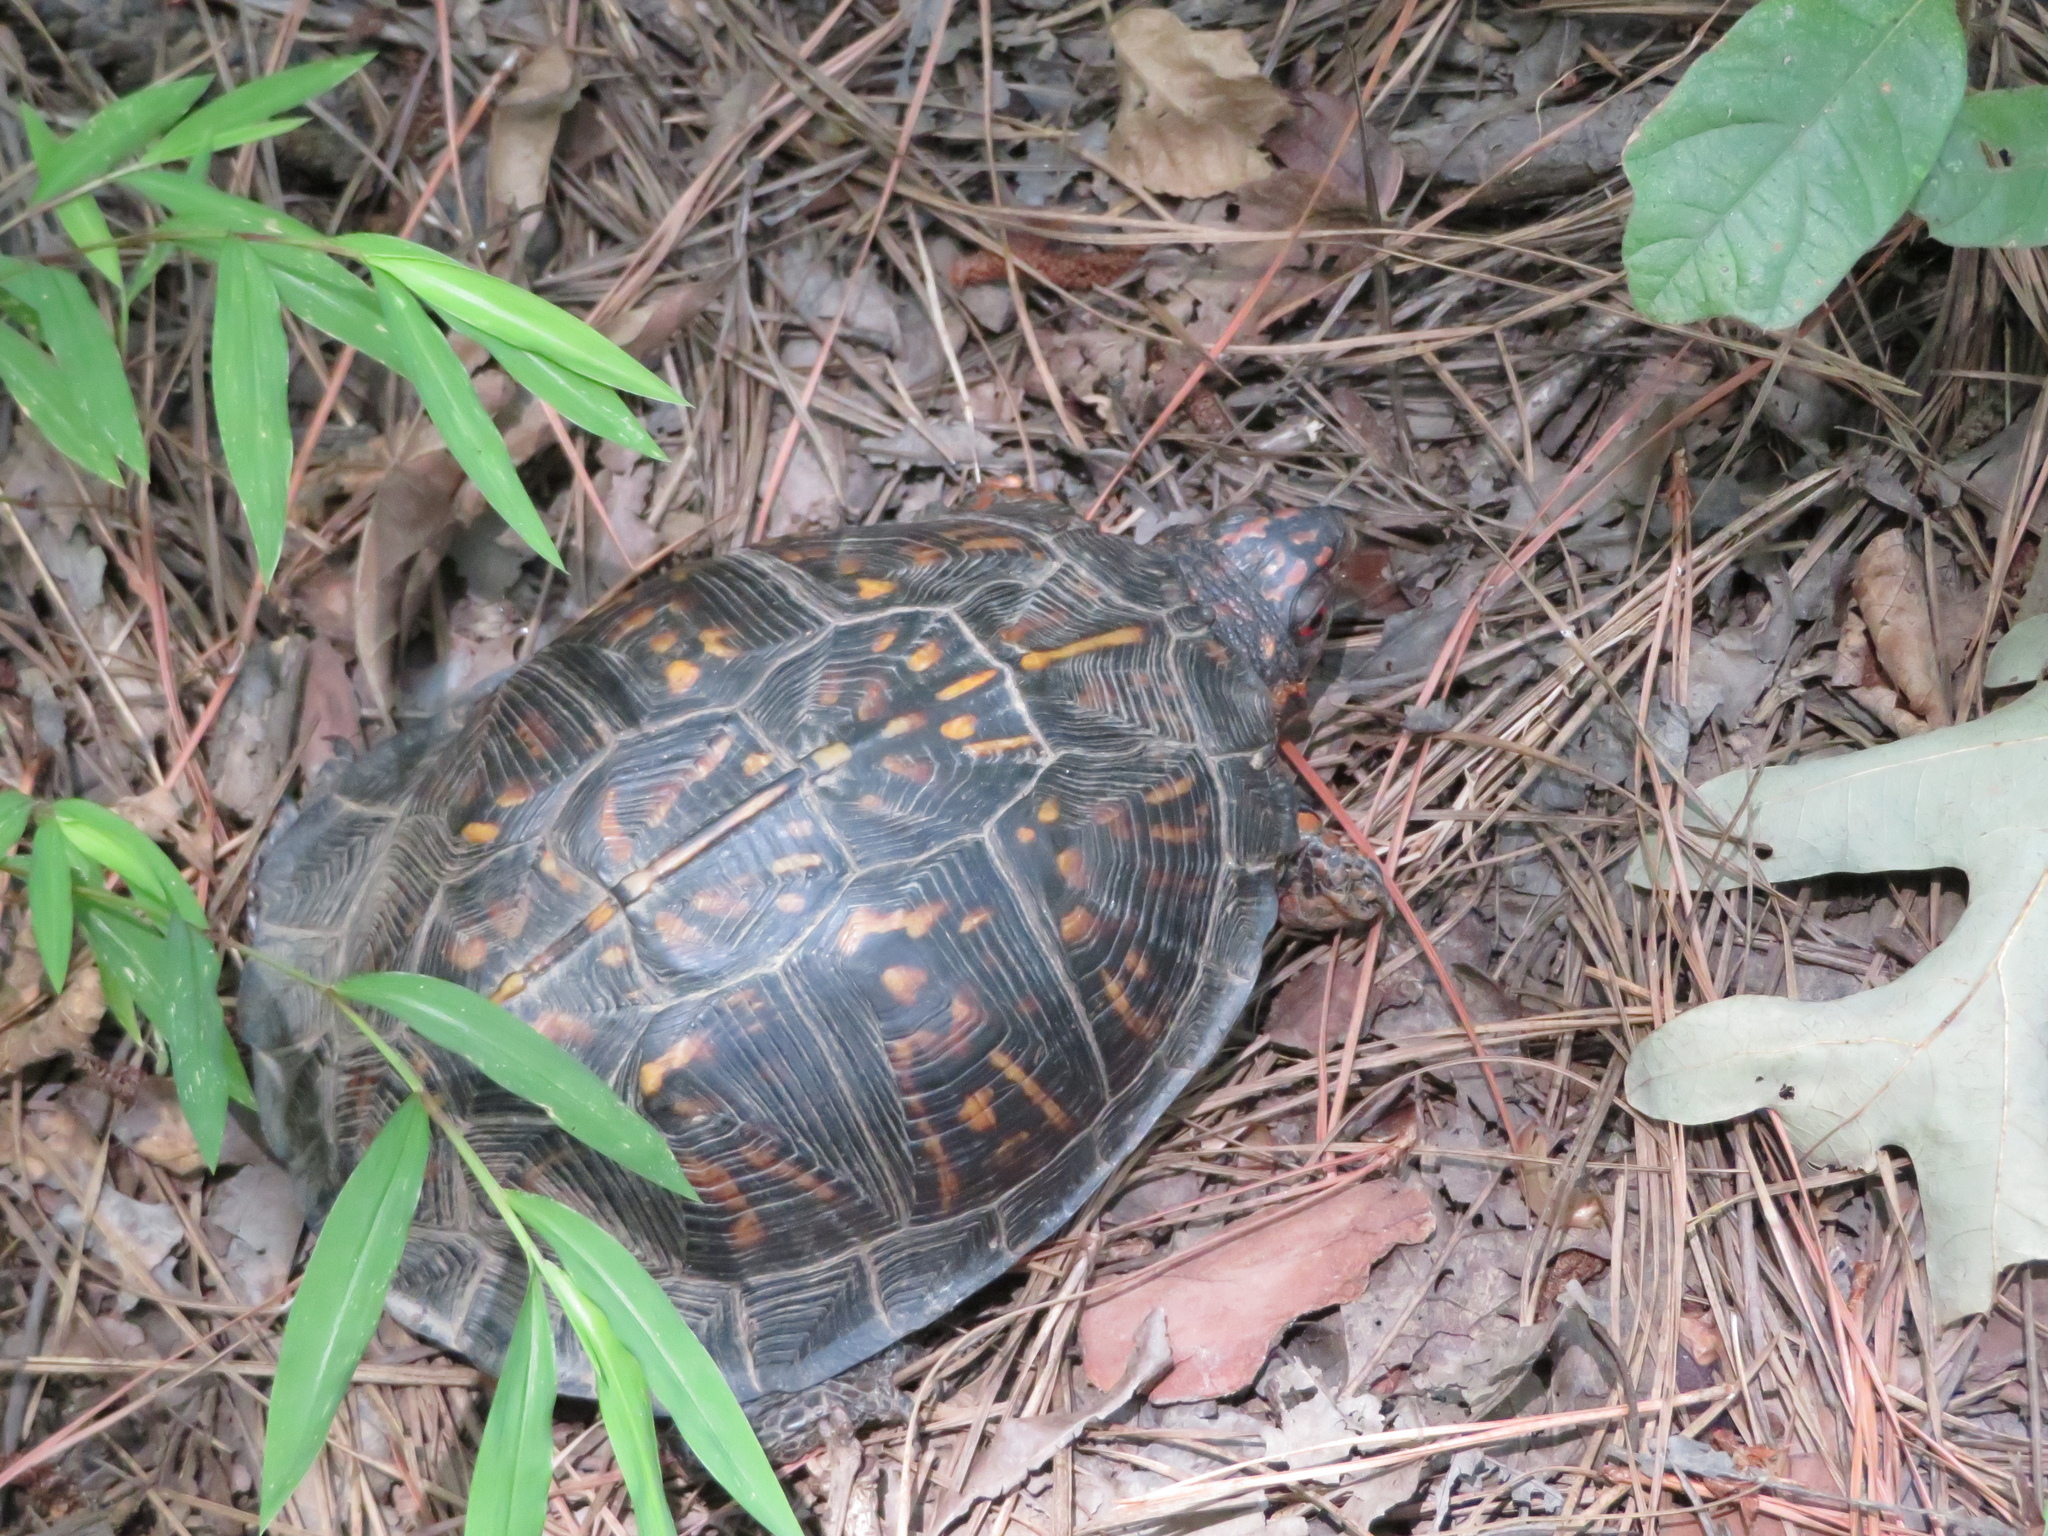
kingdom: Animalia
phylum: Chordata
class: Testudines
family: Emydidae
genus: Terrapene
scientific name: Terrapene carolina
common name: Common box turtle
